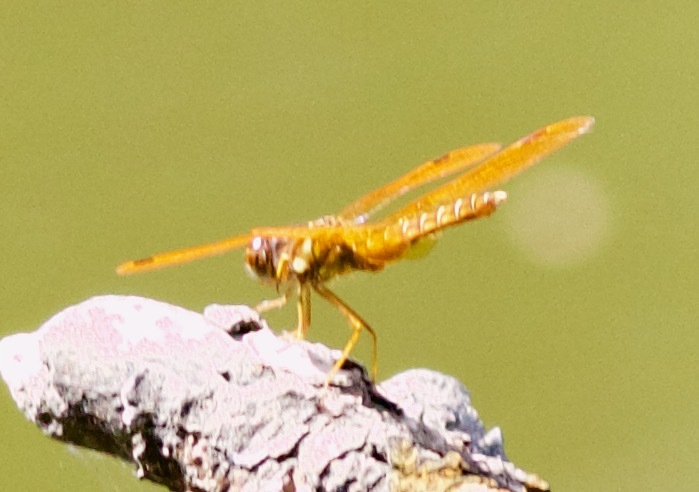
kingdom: Animalia
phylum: Arthropoda
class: Insecta
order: Odonata
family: Libellulidae
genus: Perithemis
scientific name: Perithemis tenera
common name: Eastern amberwing
